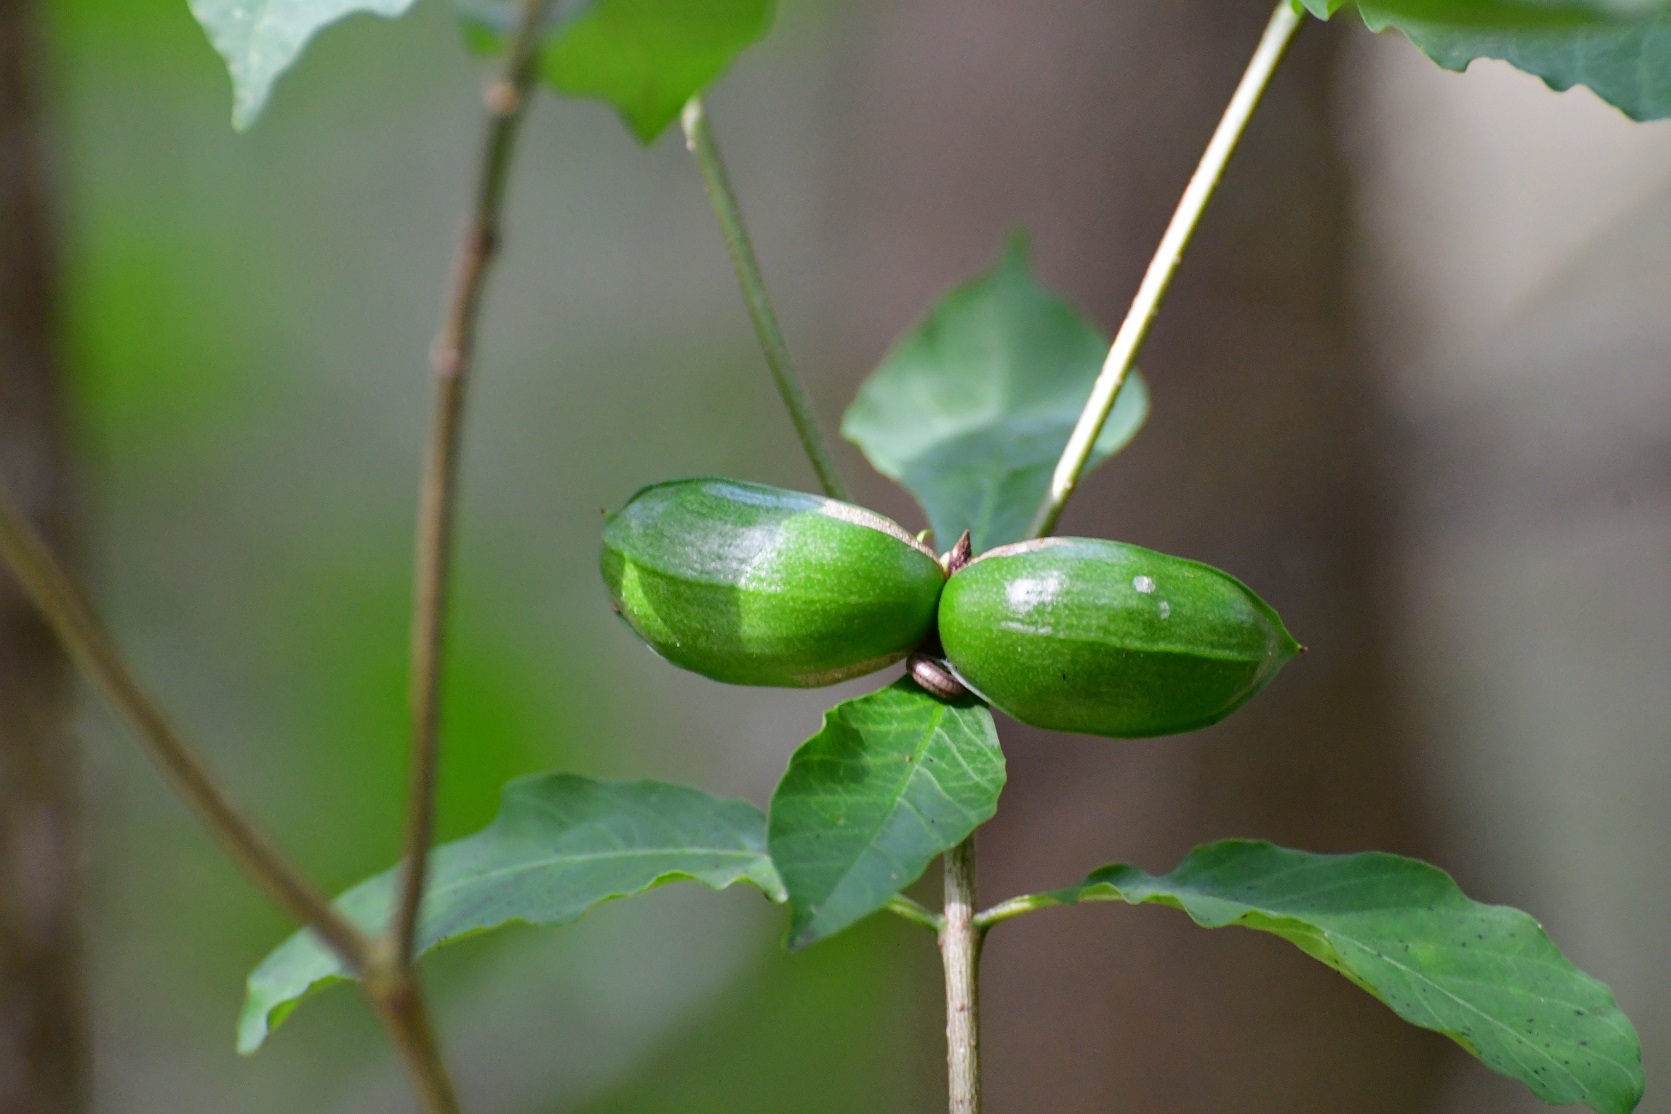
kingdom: Plantae
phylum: Tracheophyta
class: Magnoliopsida
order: Gentianales
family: Apocynaceae
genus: Tabernaemontana
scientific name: Tabernaemontana hannae
